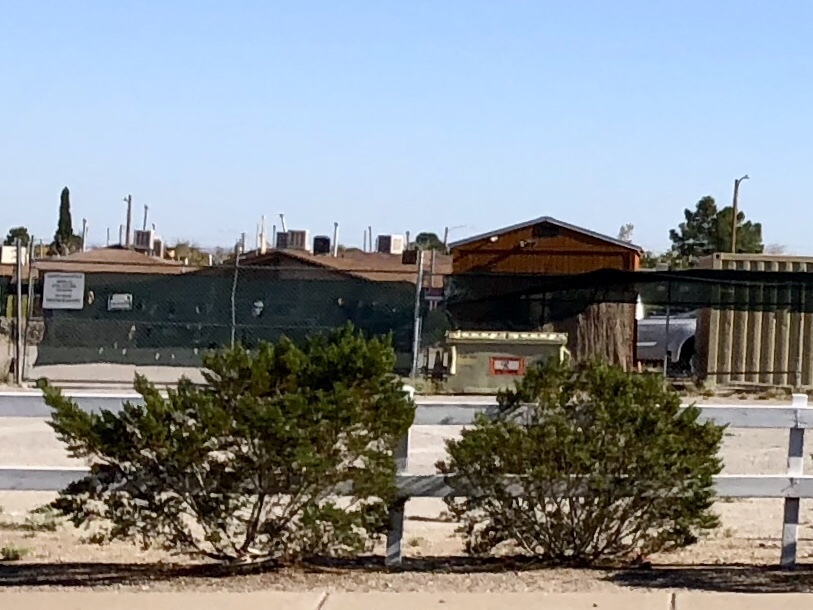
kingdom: Plantae
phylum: Tracheophyta
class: Magnoliopsida
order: Zygophyllales
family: Zygophyllaceae
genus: Larrea
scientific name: Larrea tridentata
